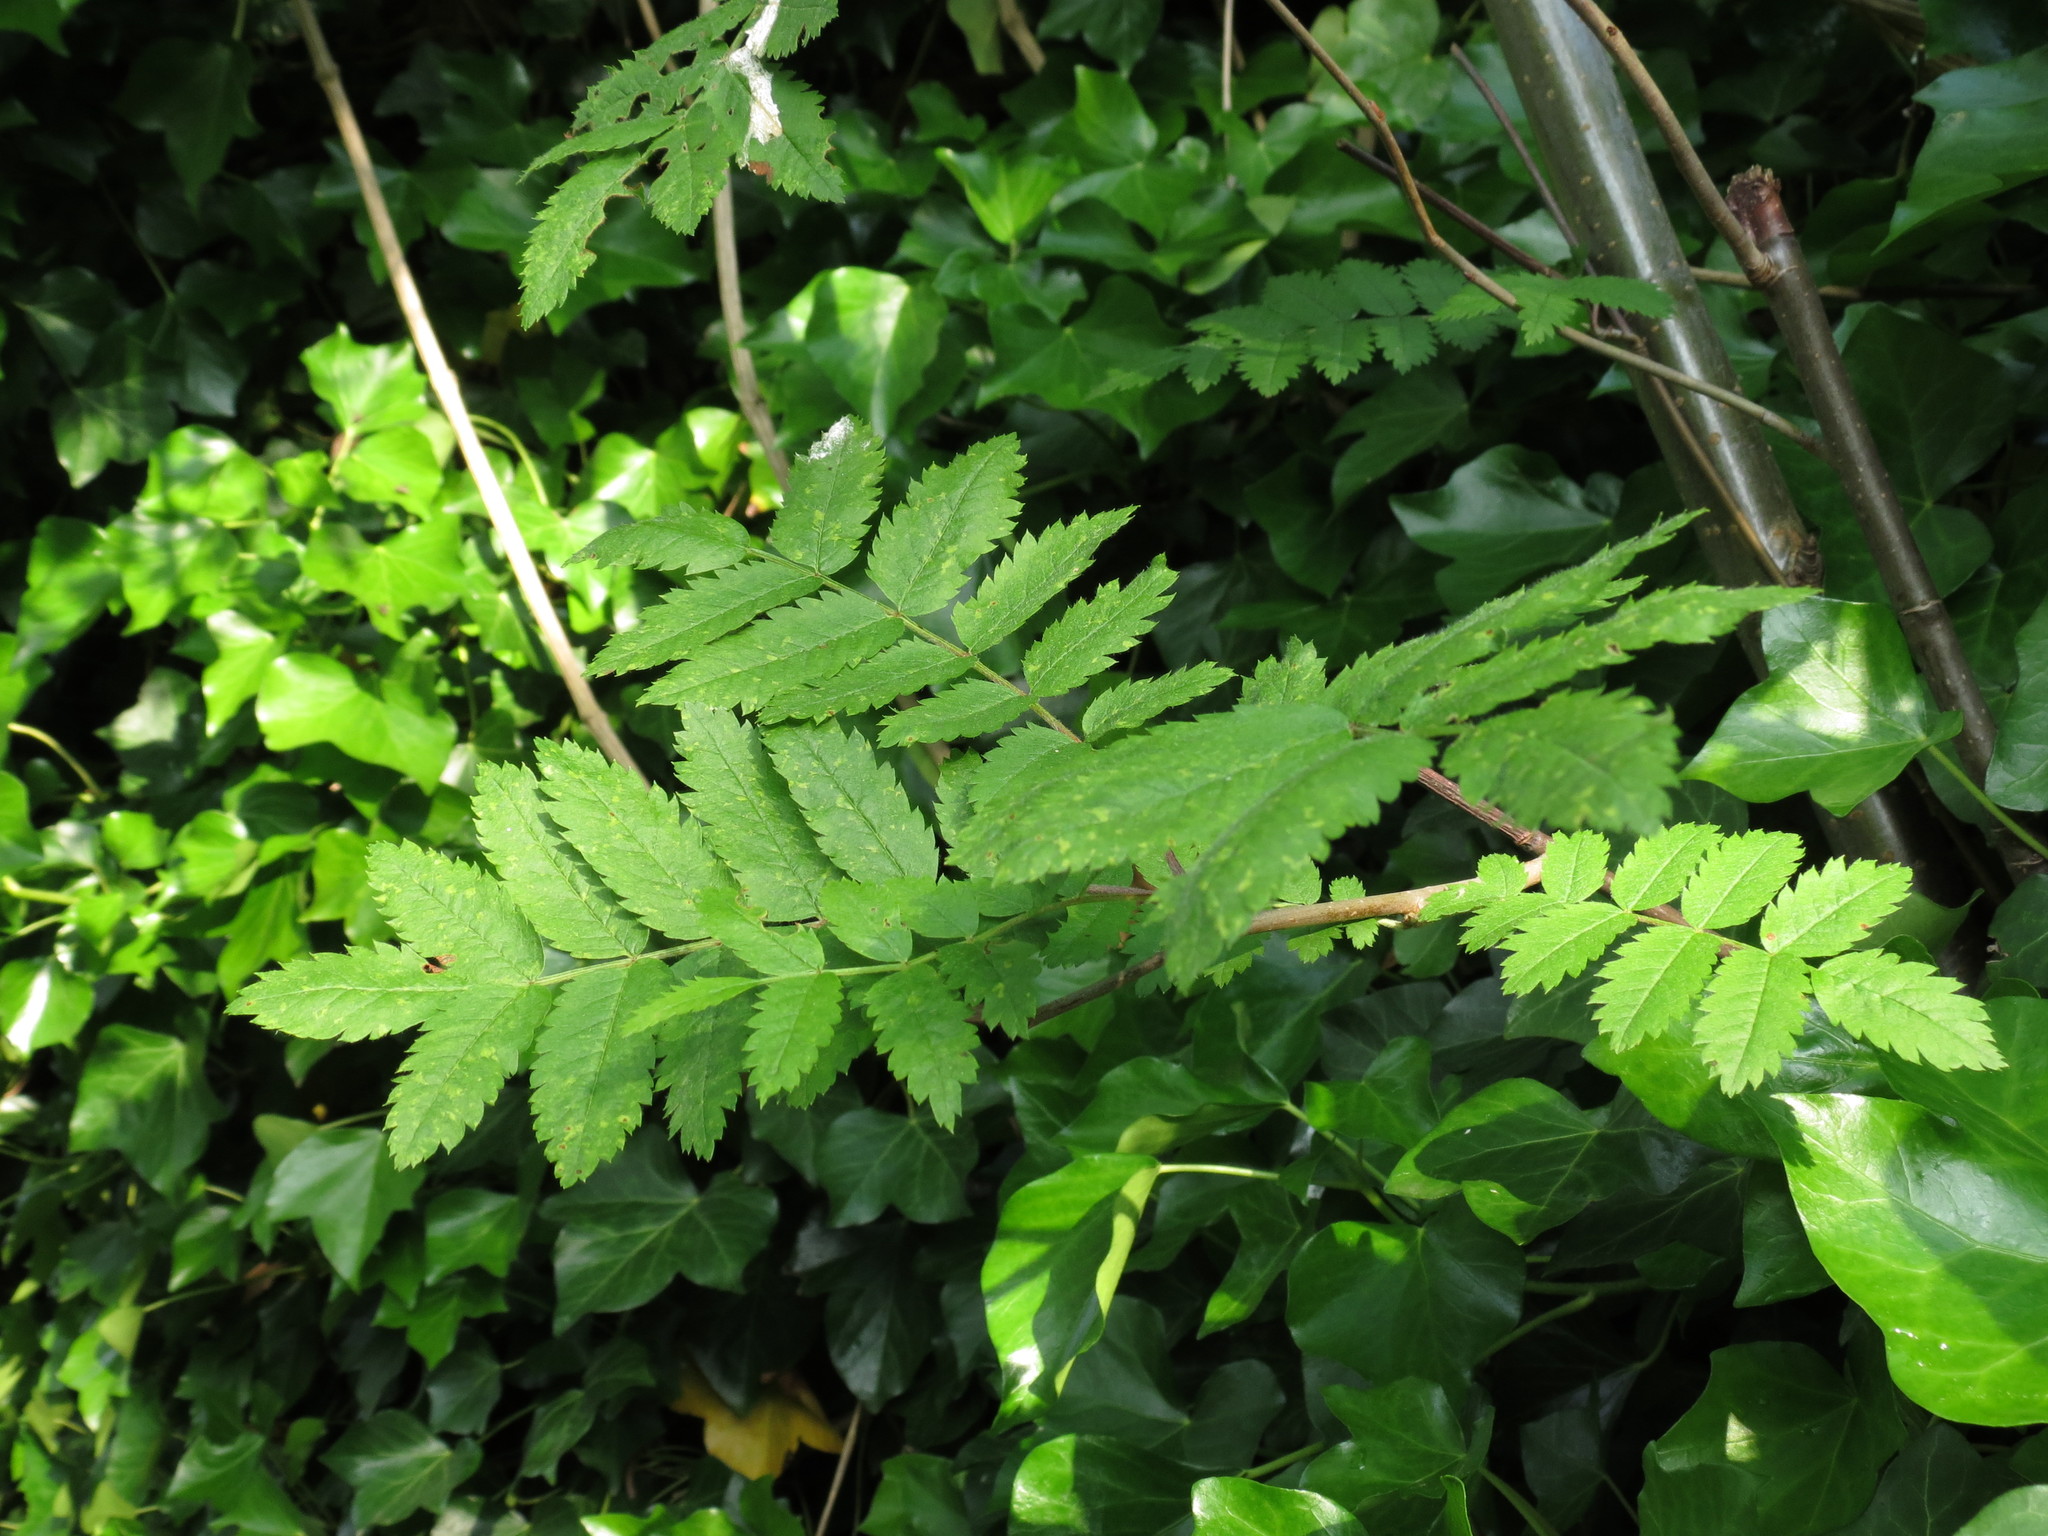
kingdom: Plantae
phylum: Tracheophyta
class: Magnoliopsida
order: Rosales
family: Rosaceae
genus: Sorbus
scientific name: Sorbus aucuparia
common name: Rowan
